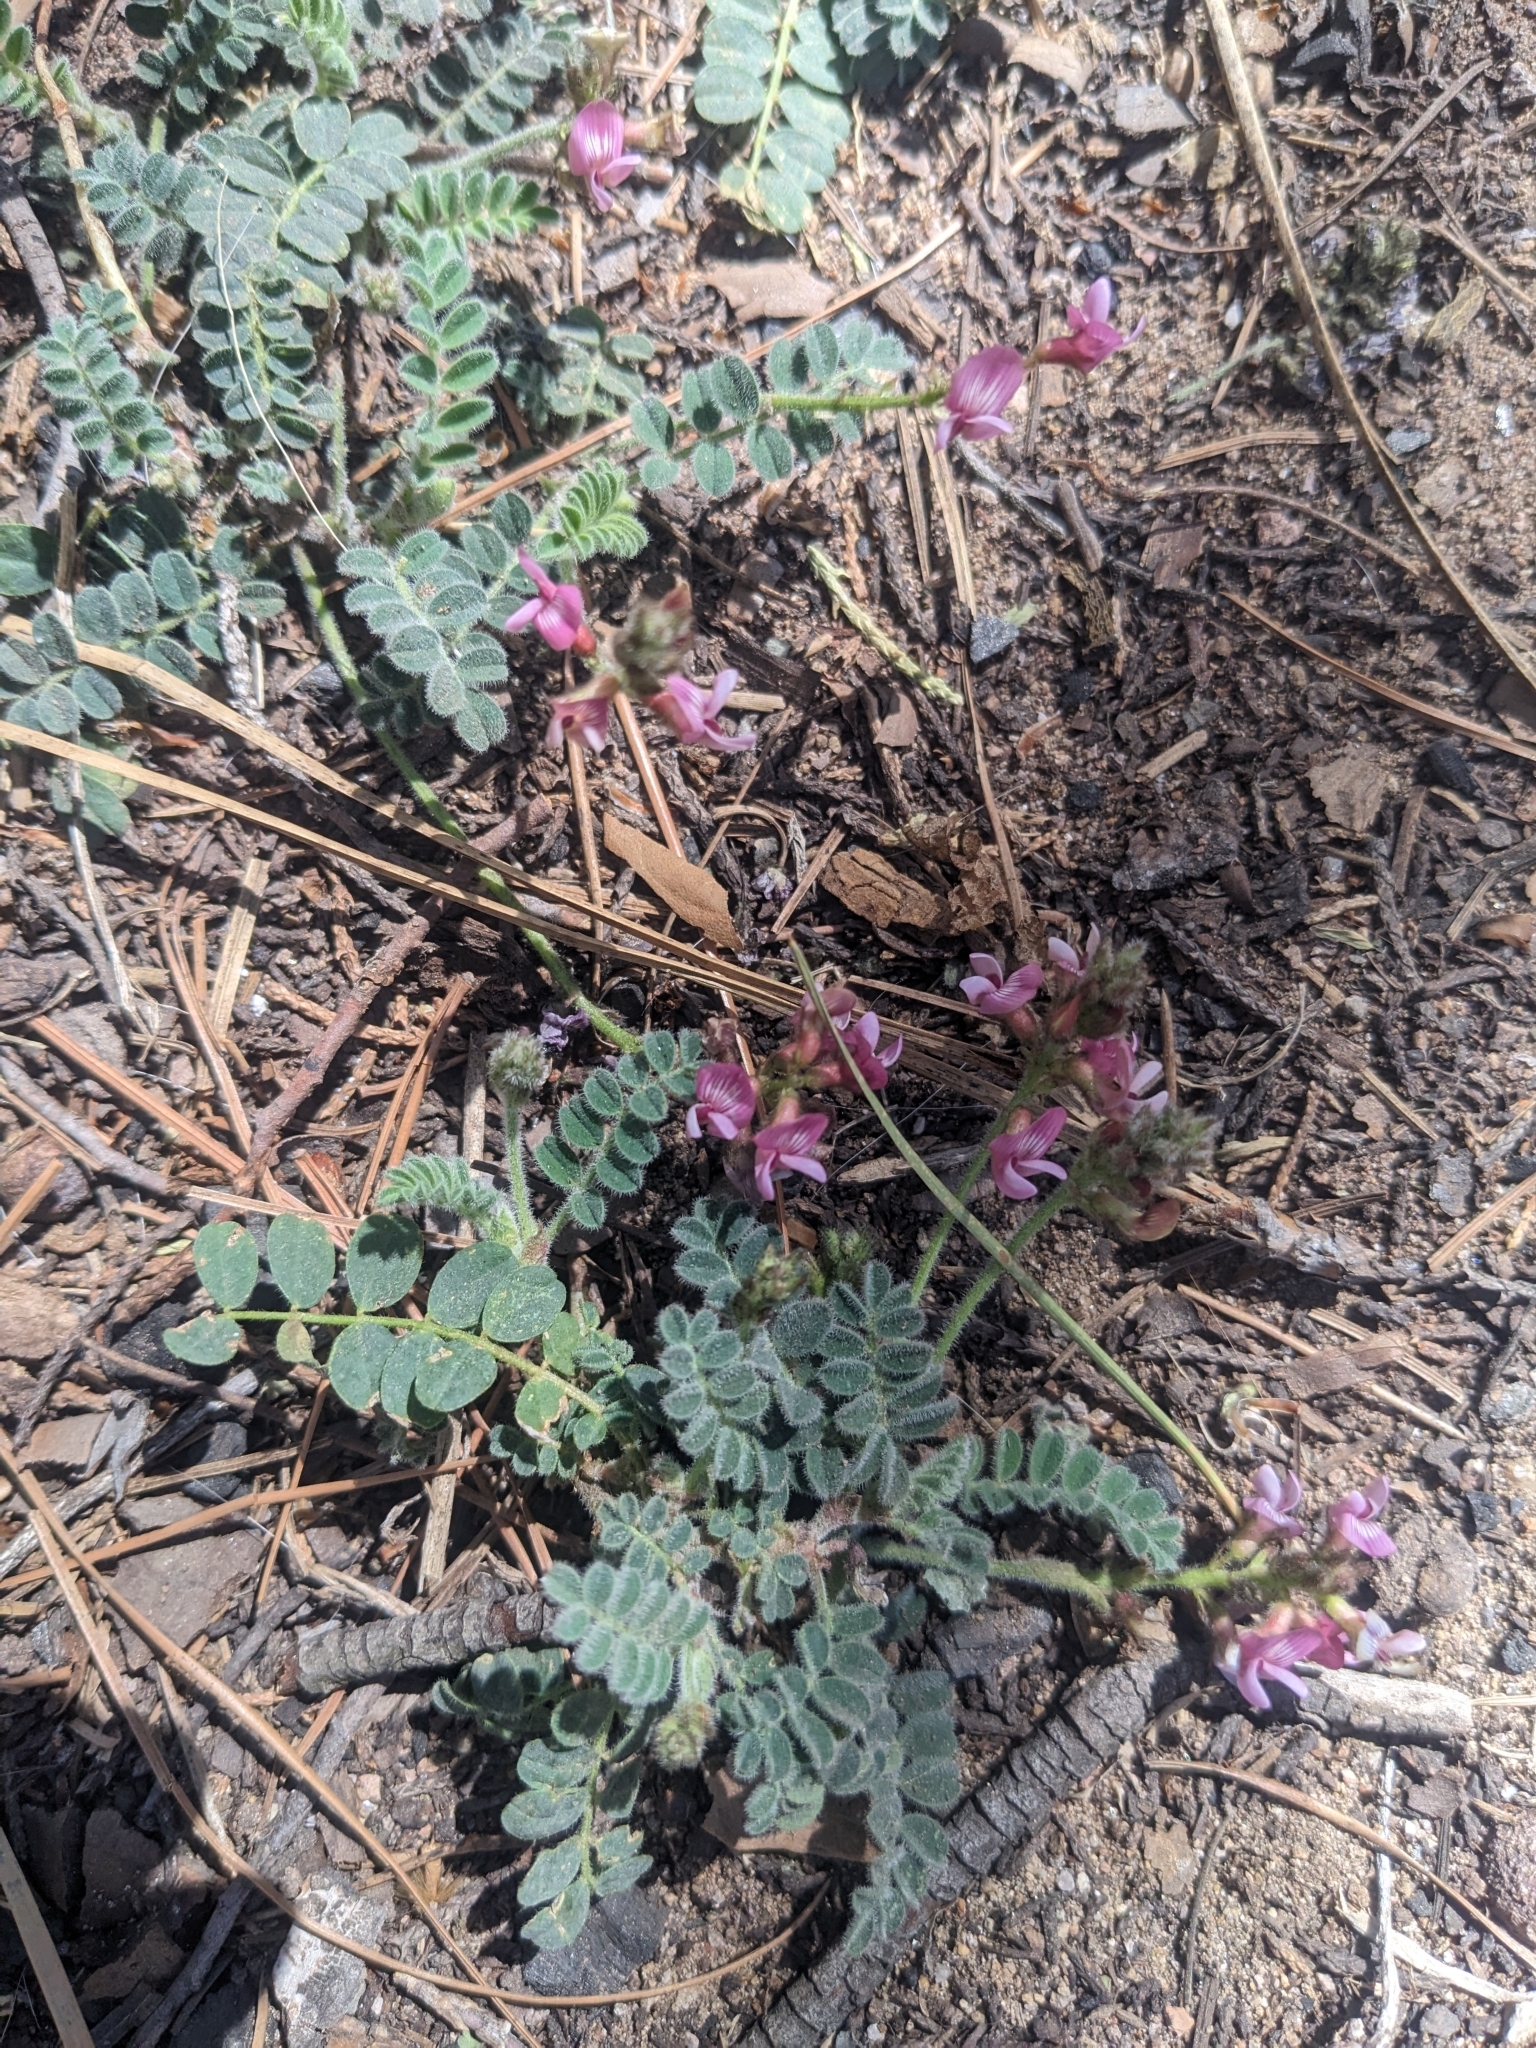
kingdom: Plantae
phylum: Tracheophyta
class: Magnoliopsida
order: Fabales
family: Fabaceae
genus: Astragalus
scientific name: Astragalus cobrensis
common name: Copper mine milkvetch
